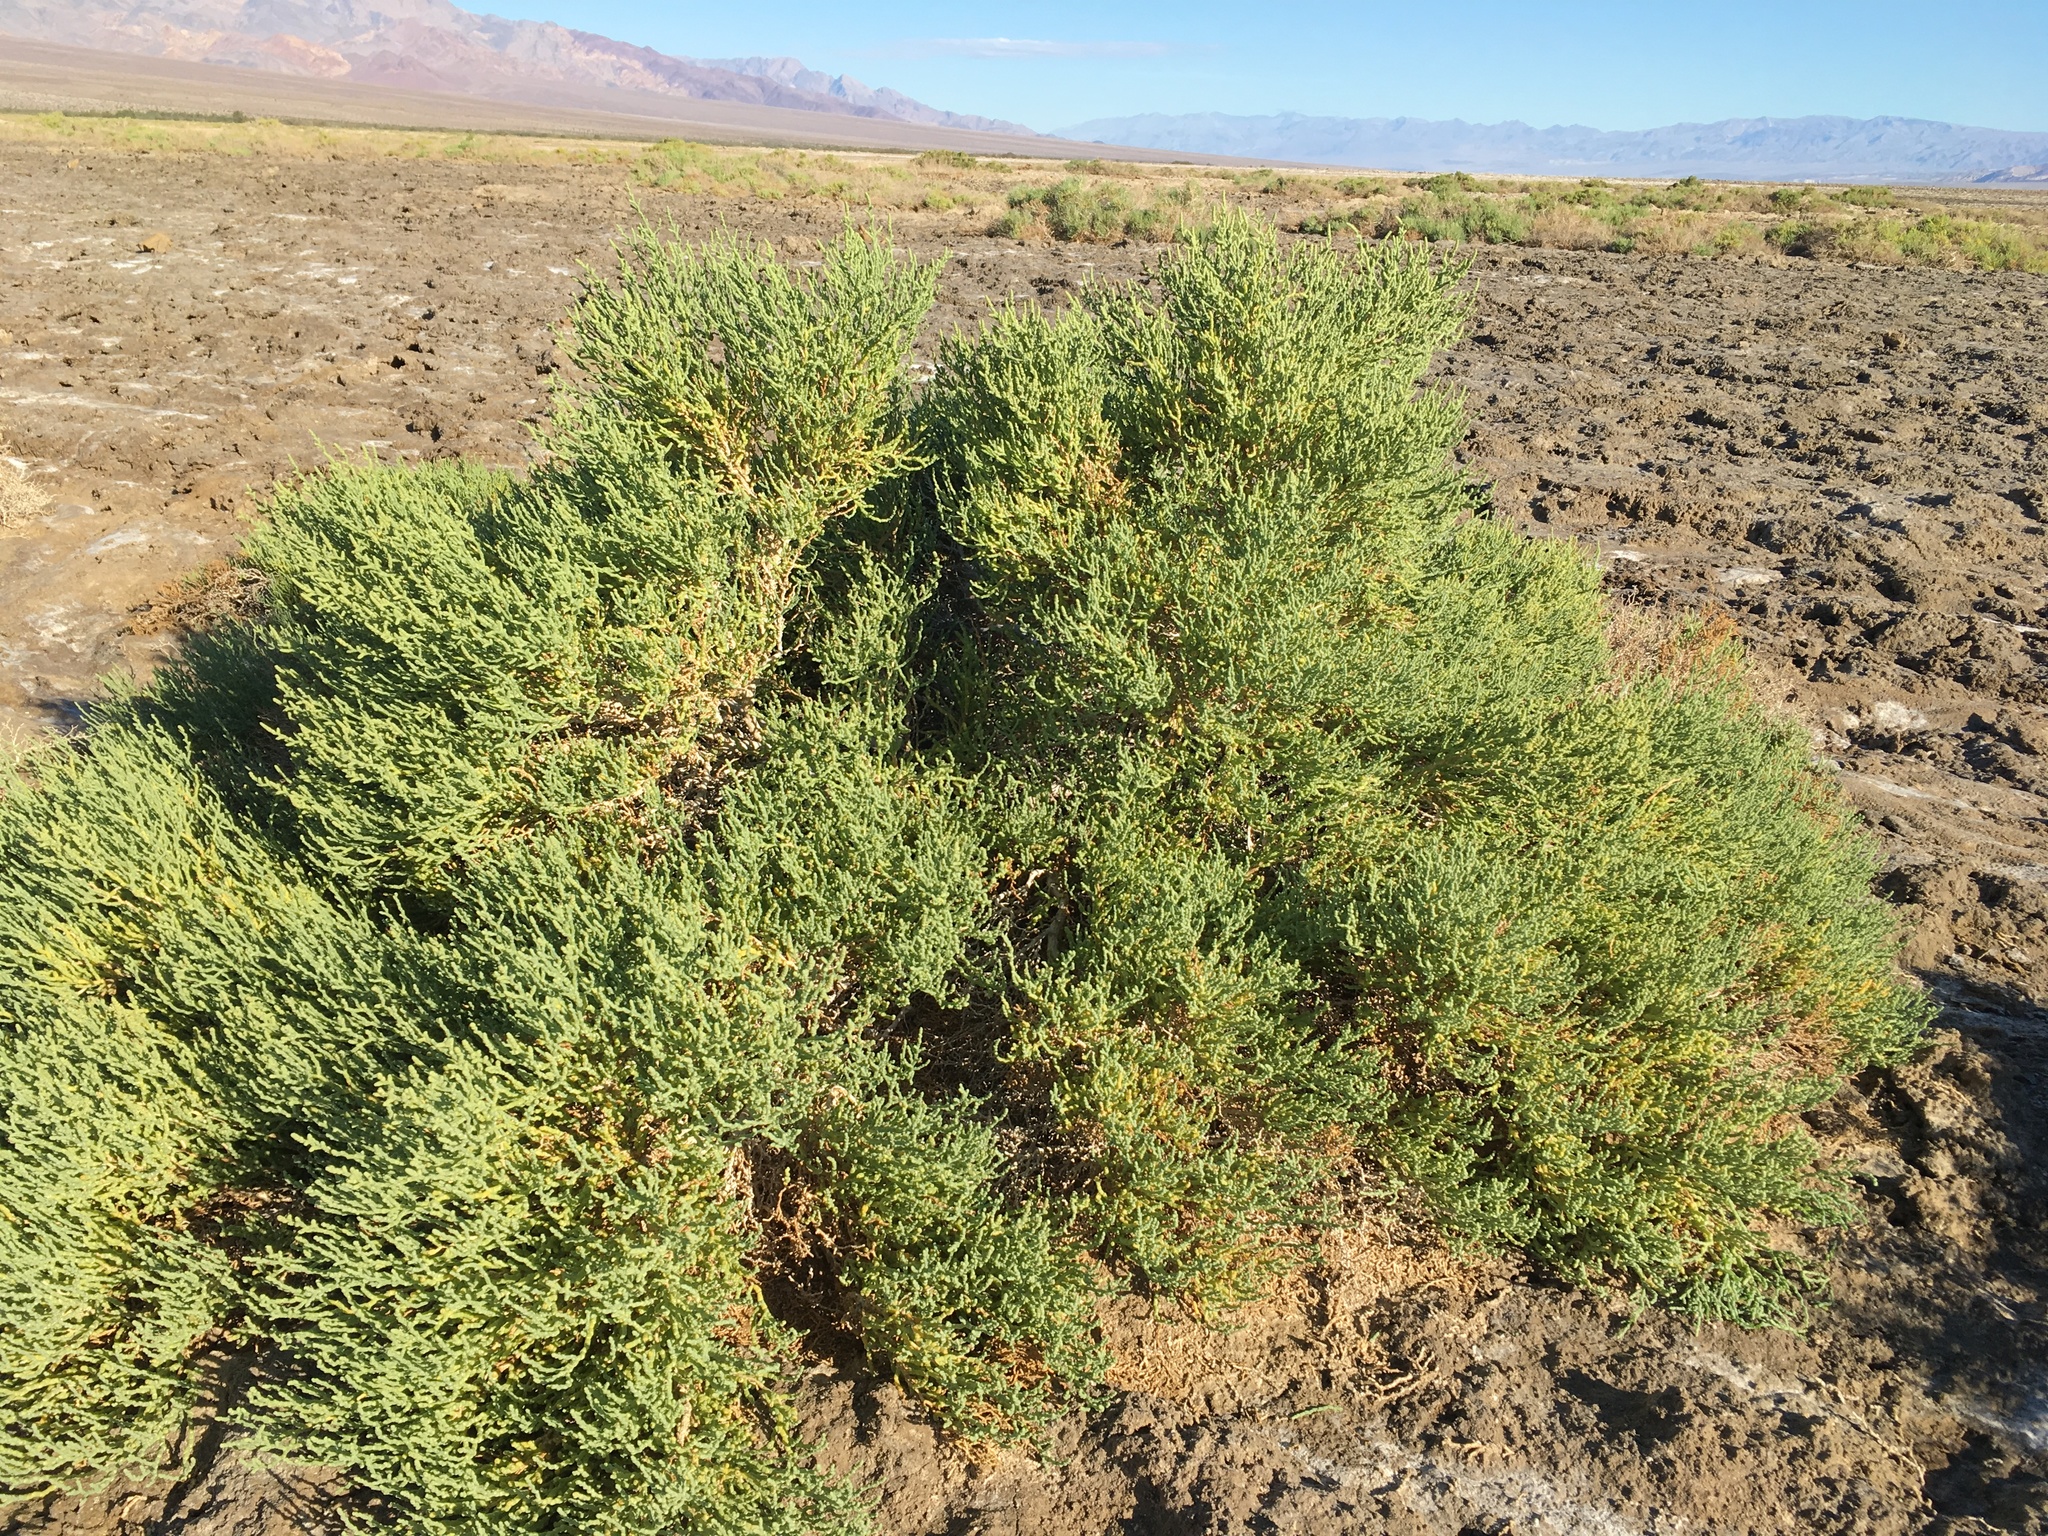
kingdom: Plantae
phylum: Tracheophyta
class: Magnoliopsida
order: Caryophyllales
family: Amaranthaceae
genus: Allenrolfea
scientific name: Allenrolfea occidentalis
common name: Iodine-bush
